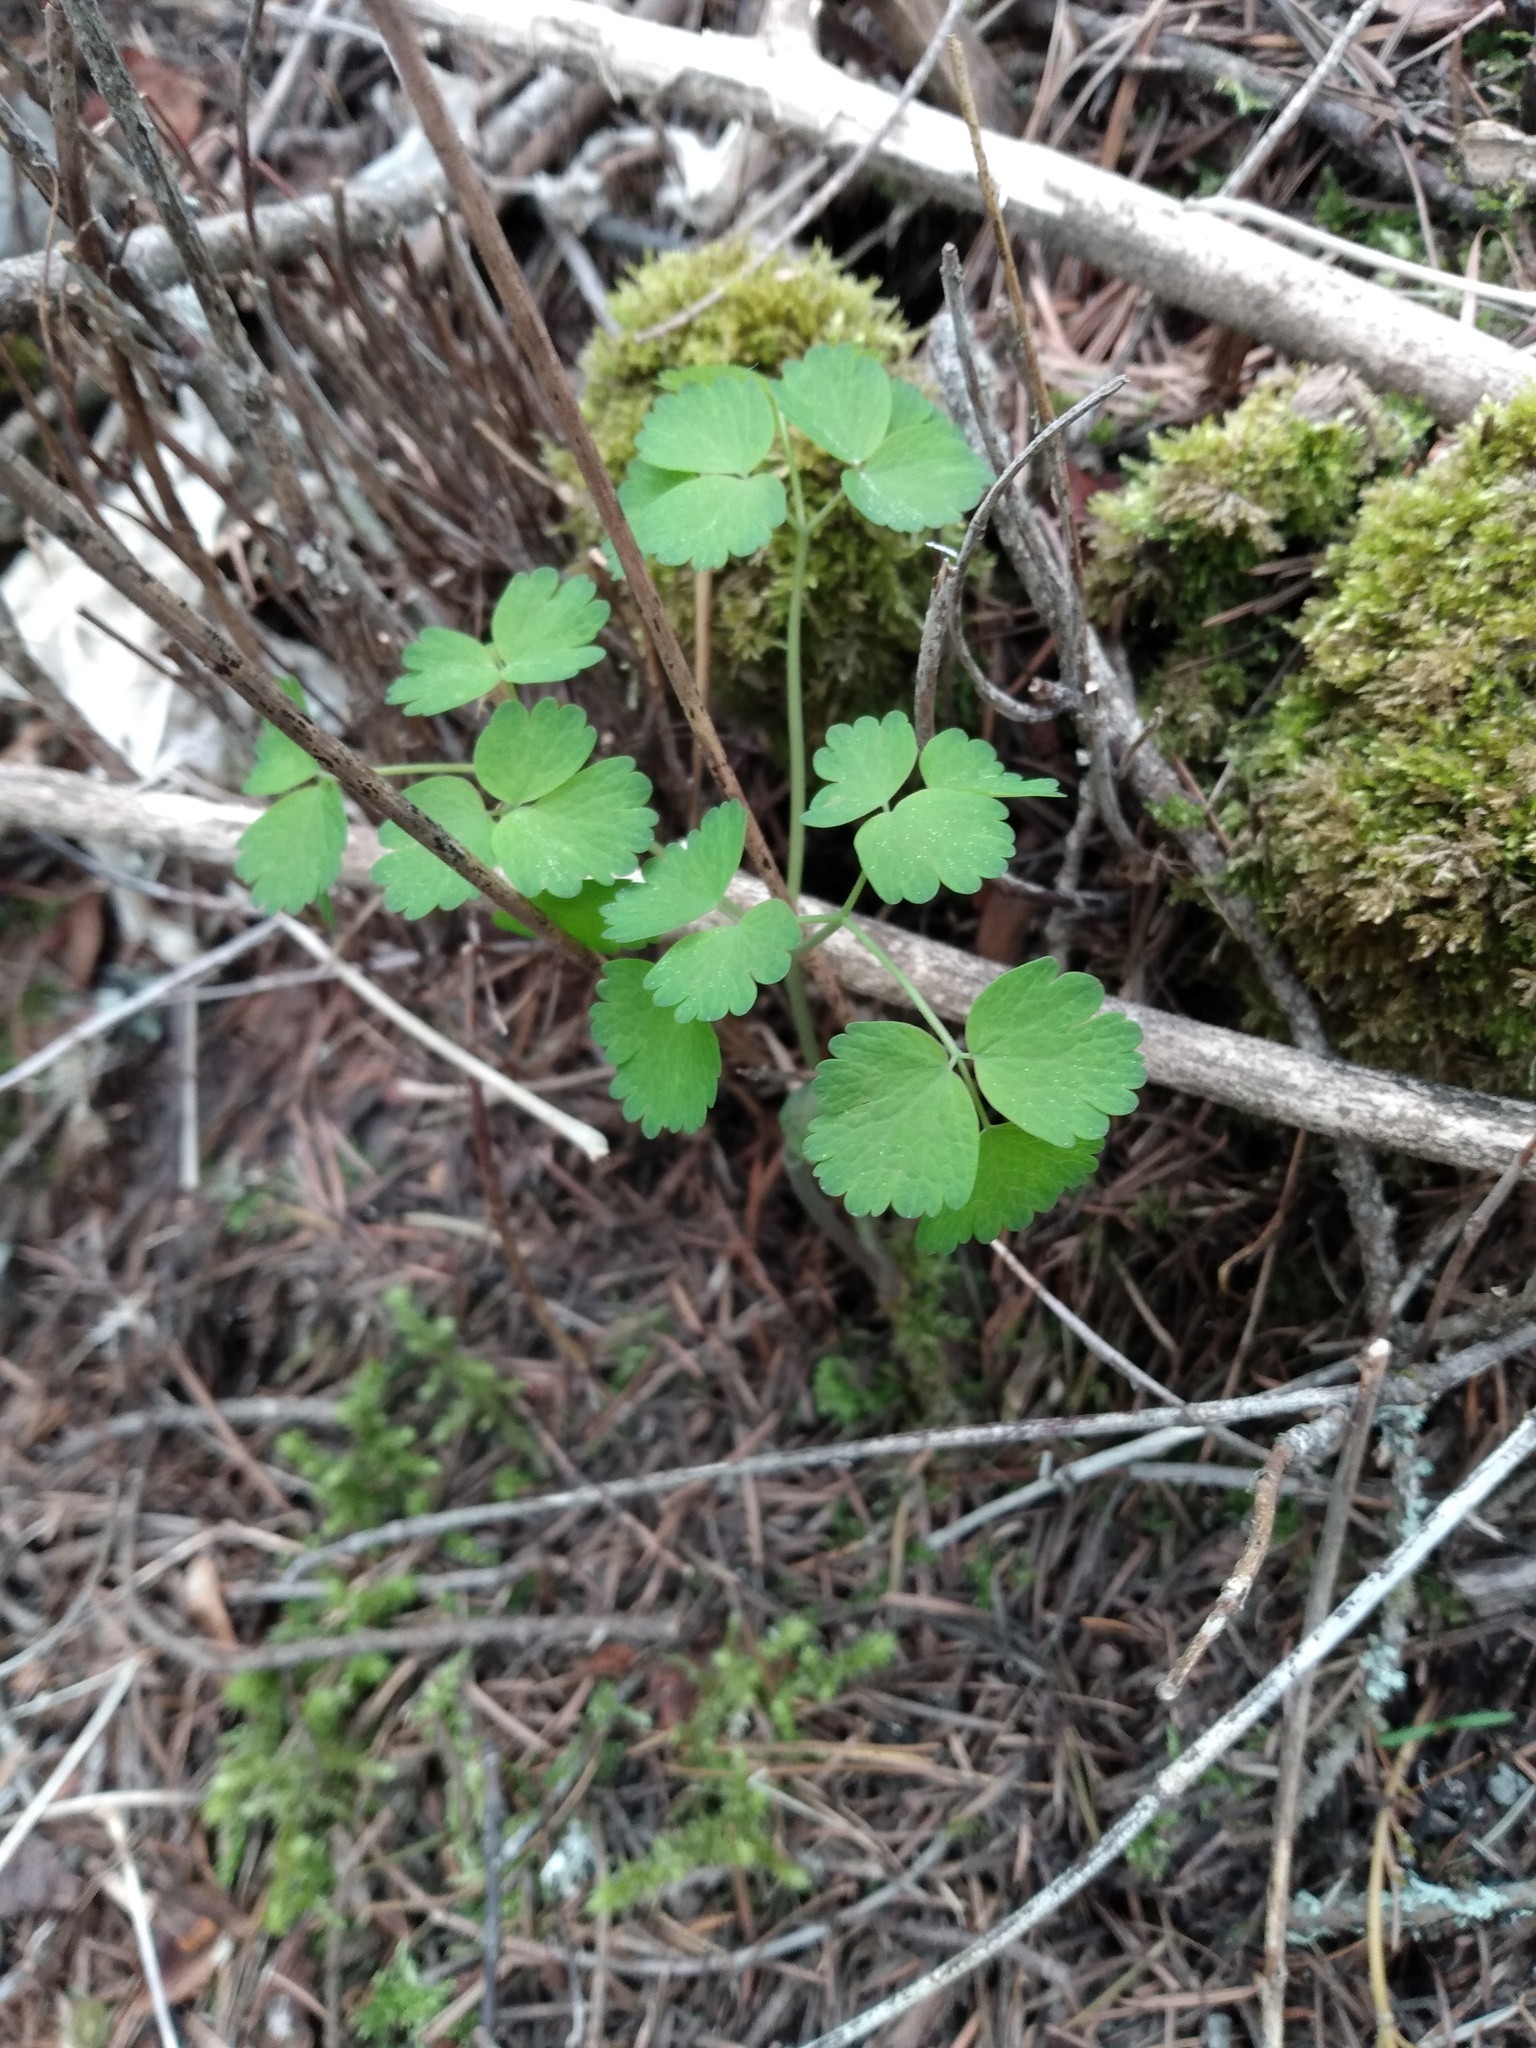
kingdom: Plantae
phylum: Tracheophyta
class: Magnoliopsida
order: Ranunculales
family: Ranunculaceae
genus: Thalictrum
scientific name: Thalictrum occidentale
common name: Western meadow-rue
